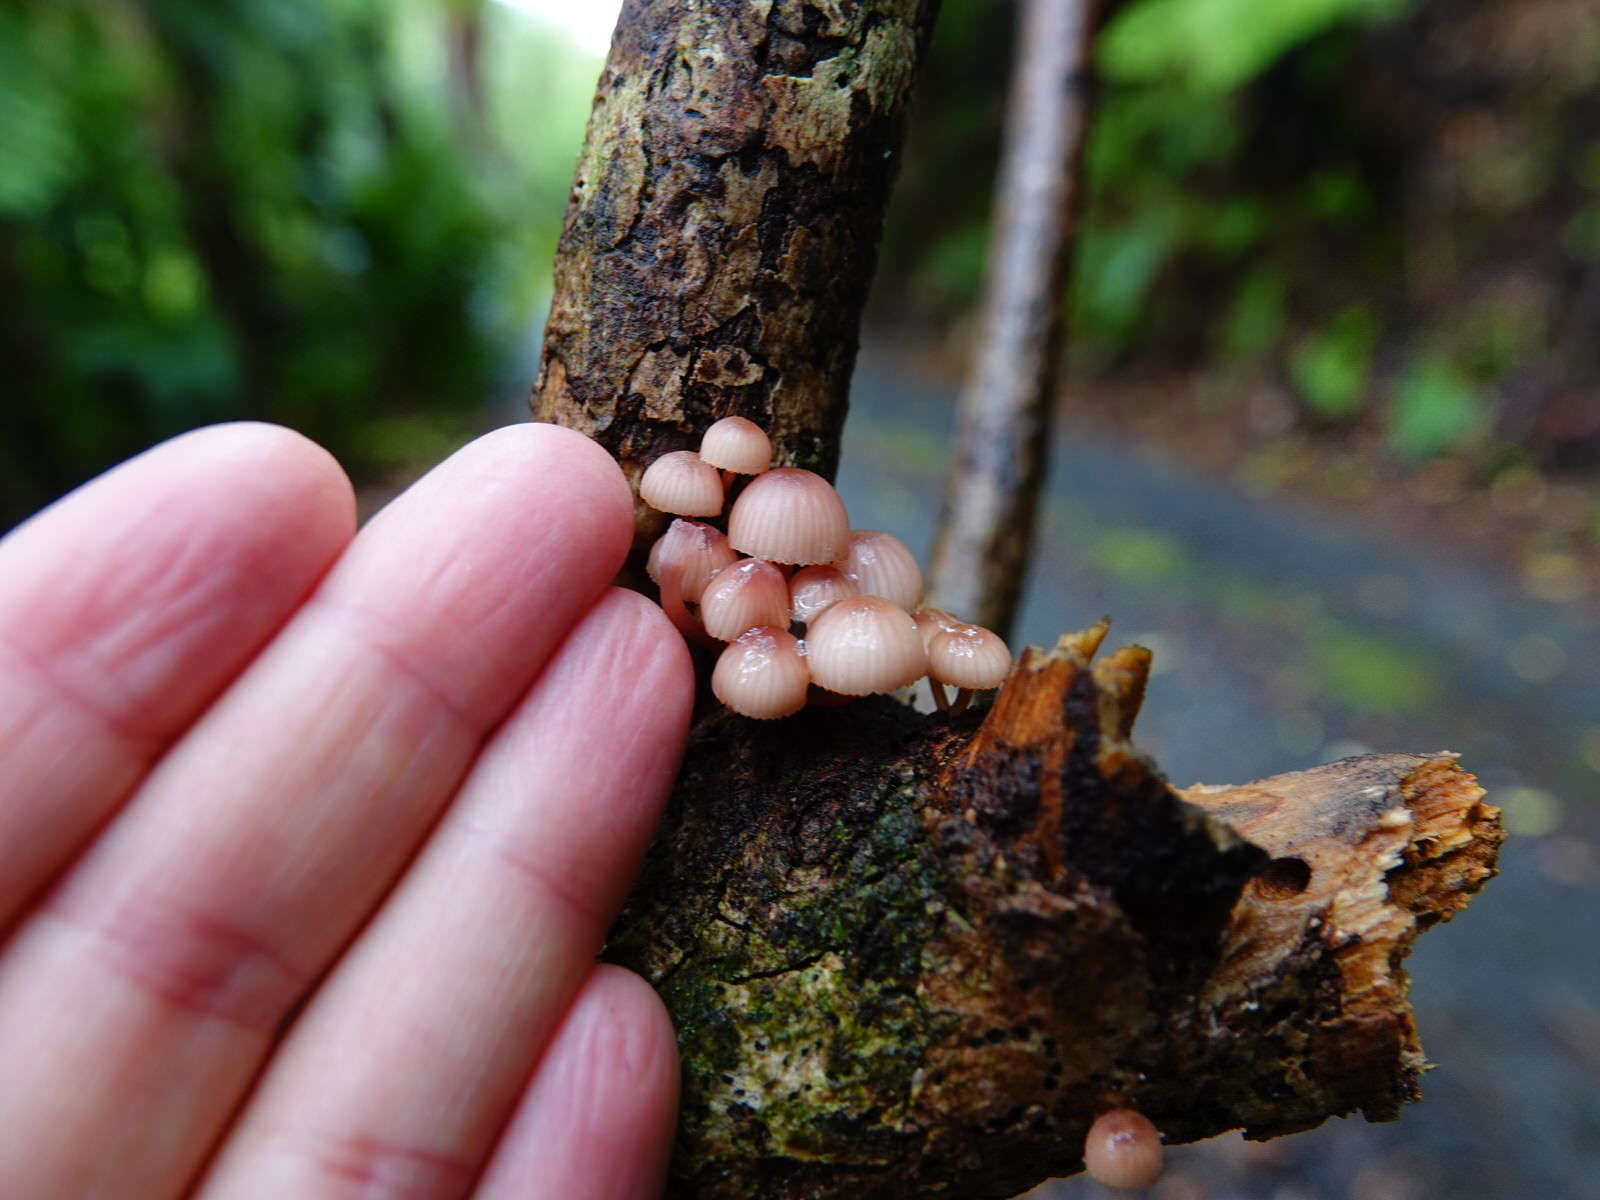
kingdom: Fungi
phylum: Basidiomycota
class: Agaricomycetes
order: Agaricales
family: Mycenaceae
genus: Mycena
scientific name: Mycena mariae
